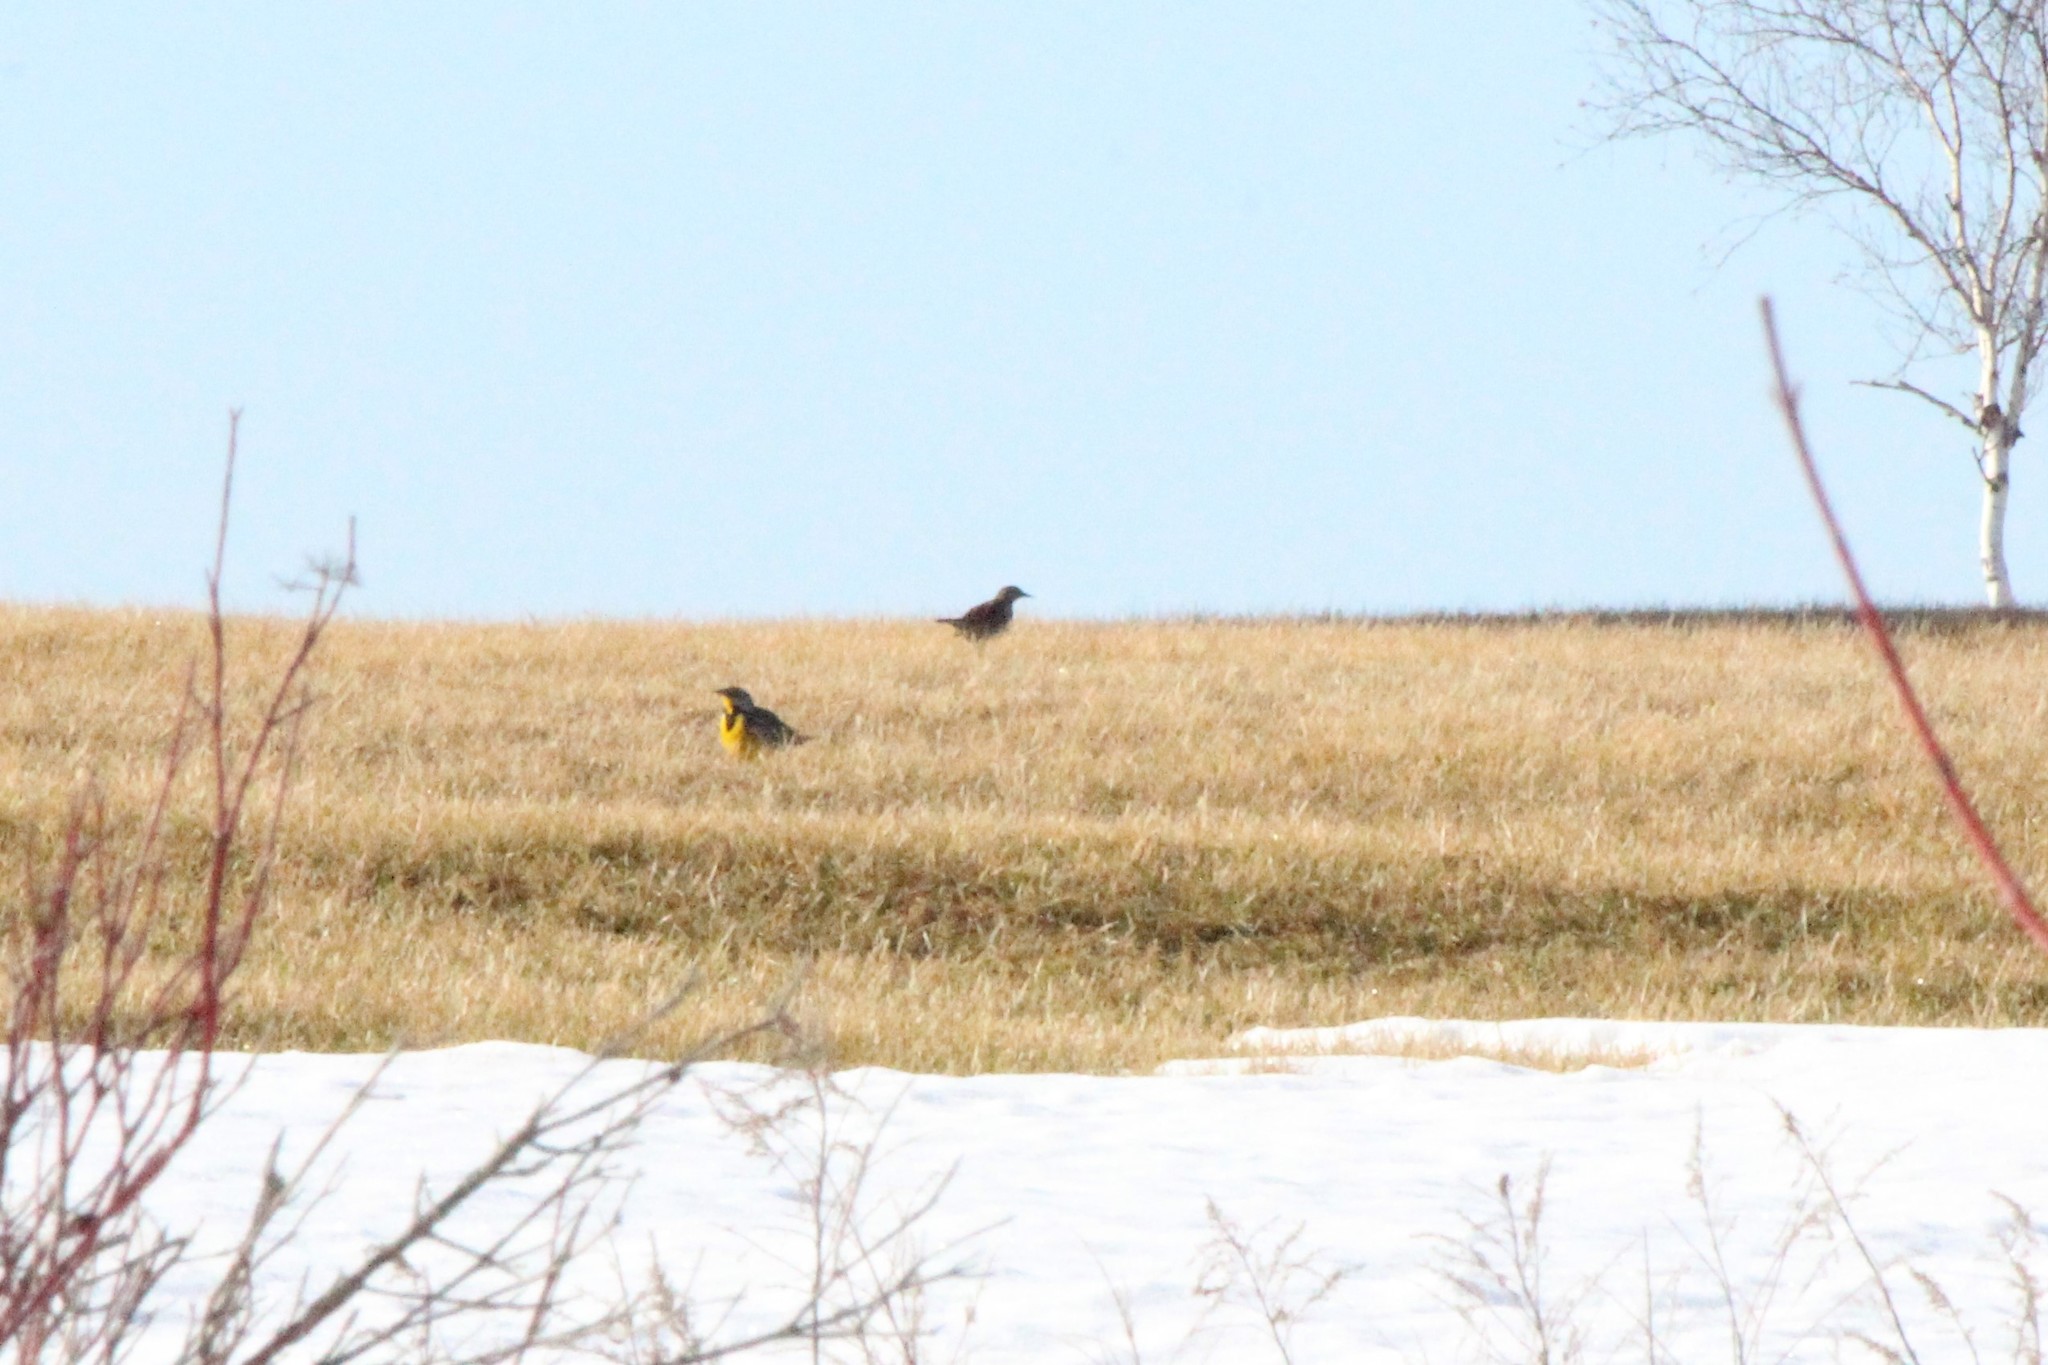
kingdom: Animalia
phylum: Chordata
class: Aves
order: Passeriformes
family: Icteridae
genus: Sturnella
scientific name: Sturnella magna
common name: Eastern meadowlark
